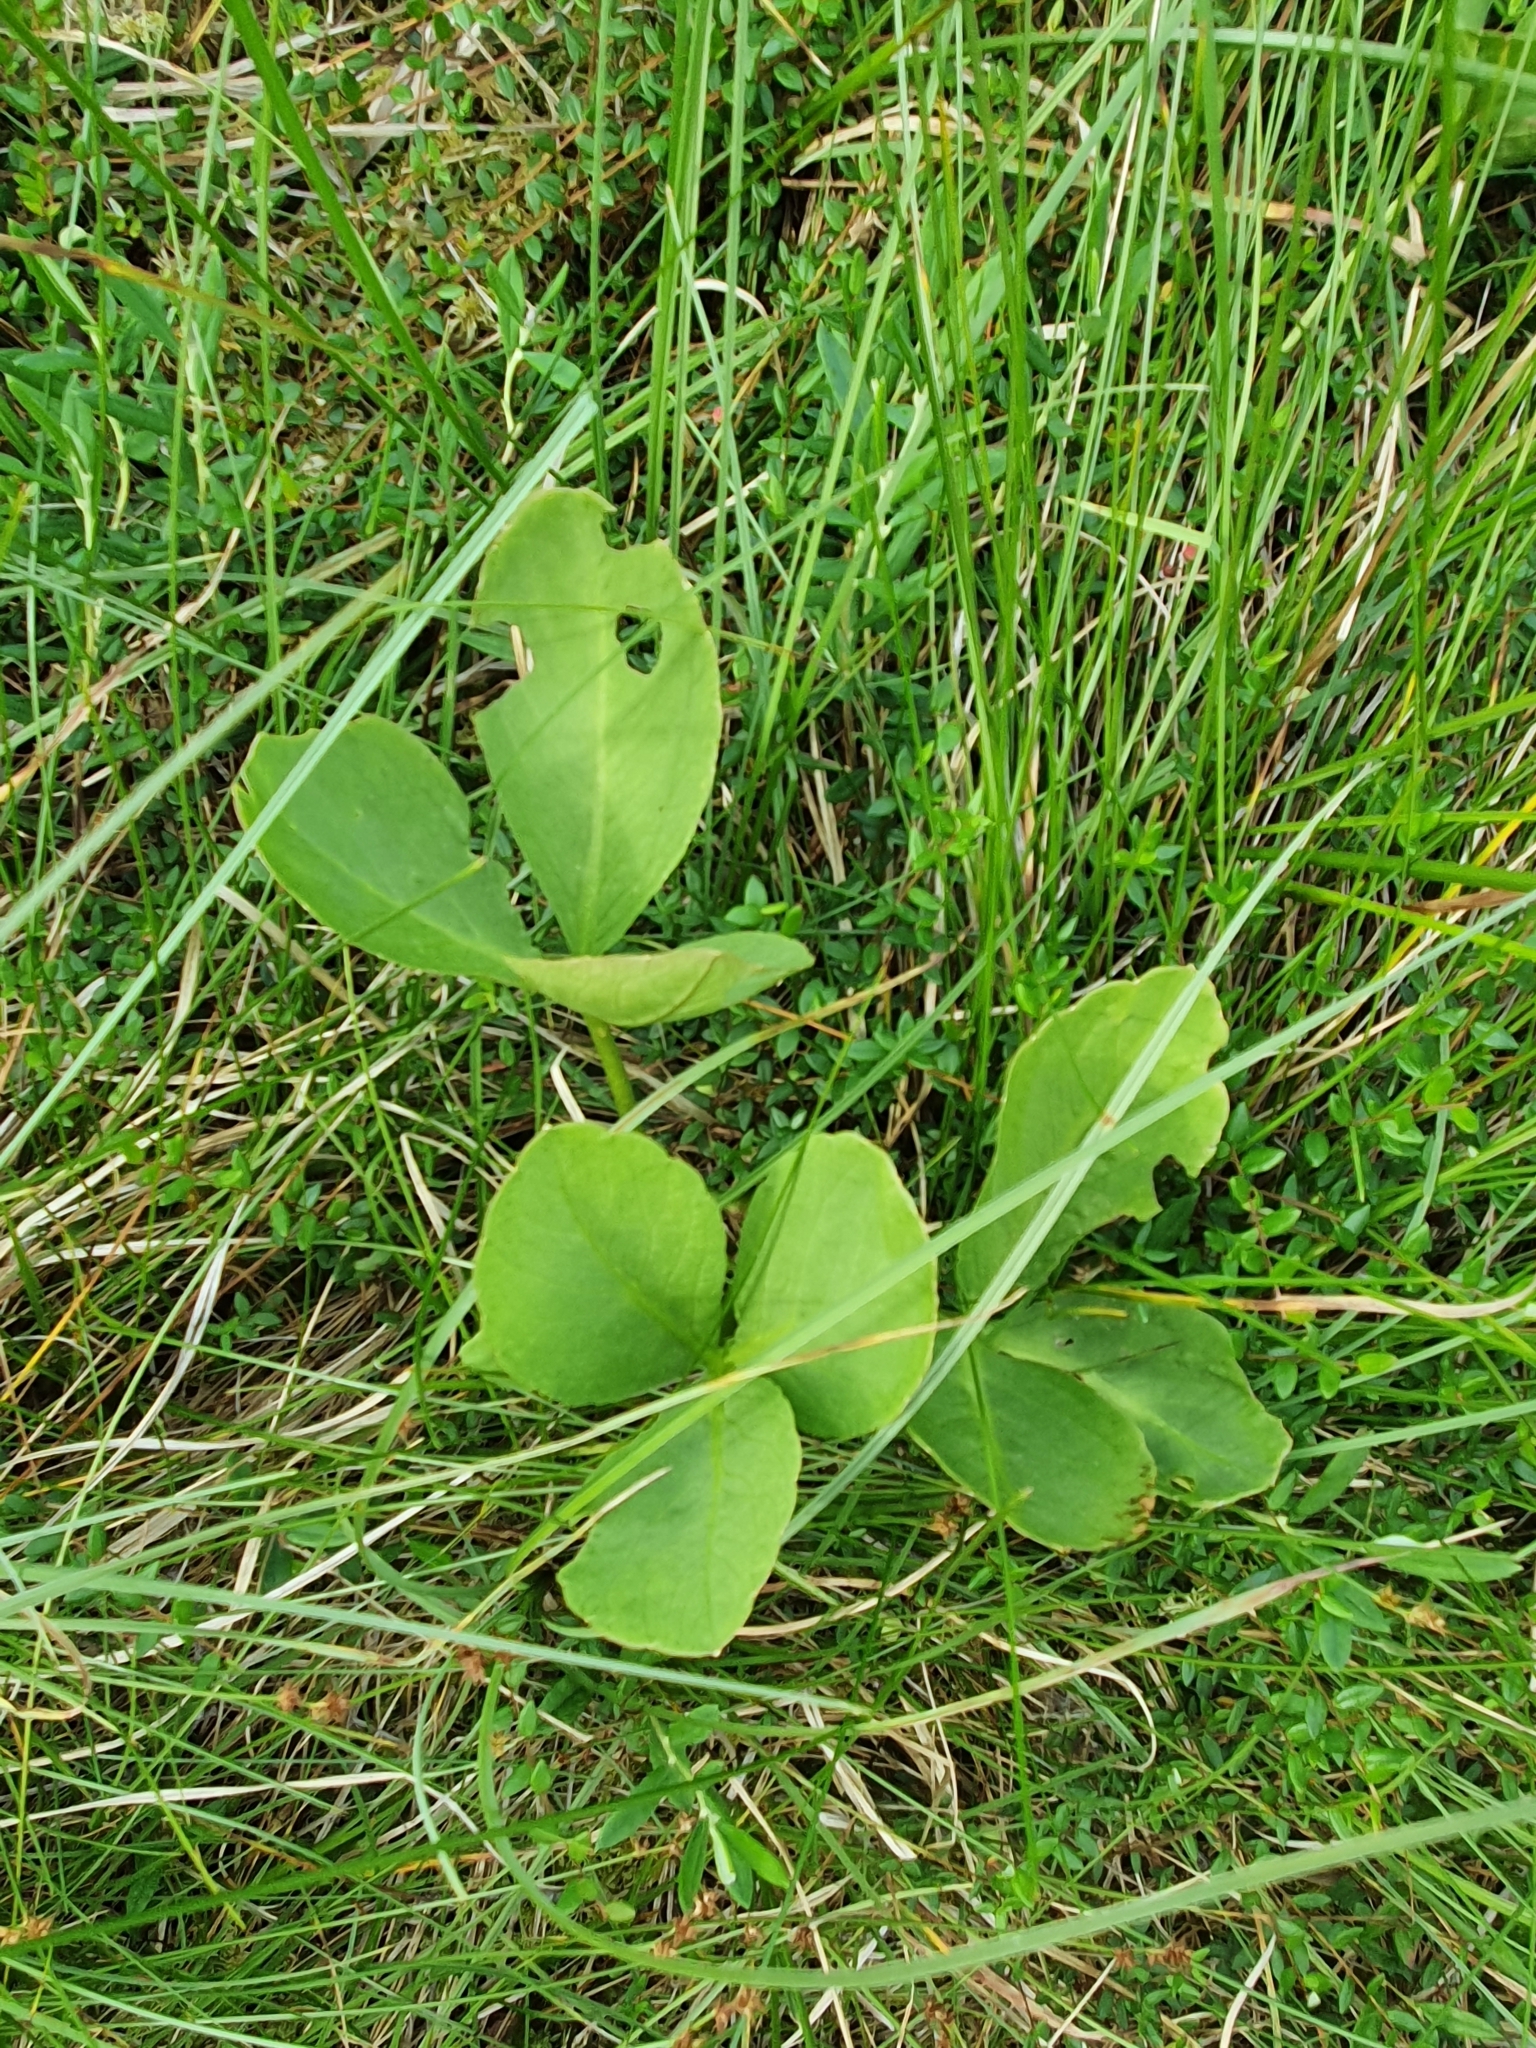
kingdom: Plantae
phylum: Tracheophyta
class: Magnoliopsida
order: Asterales
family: Menyanthaceae
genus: Menyanthes
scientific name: Menyanthes trifoliata
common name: Bogbean
